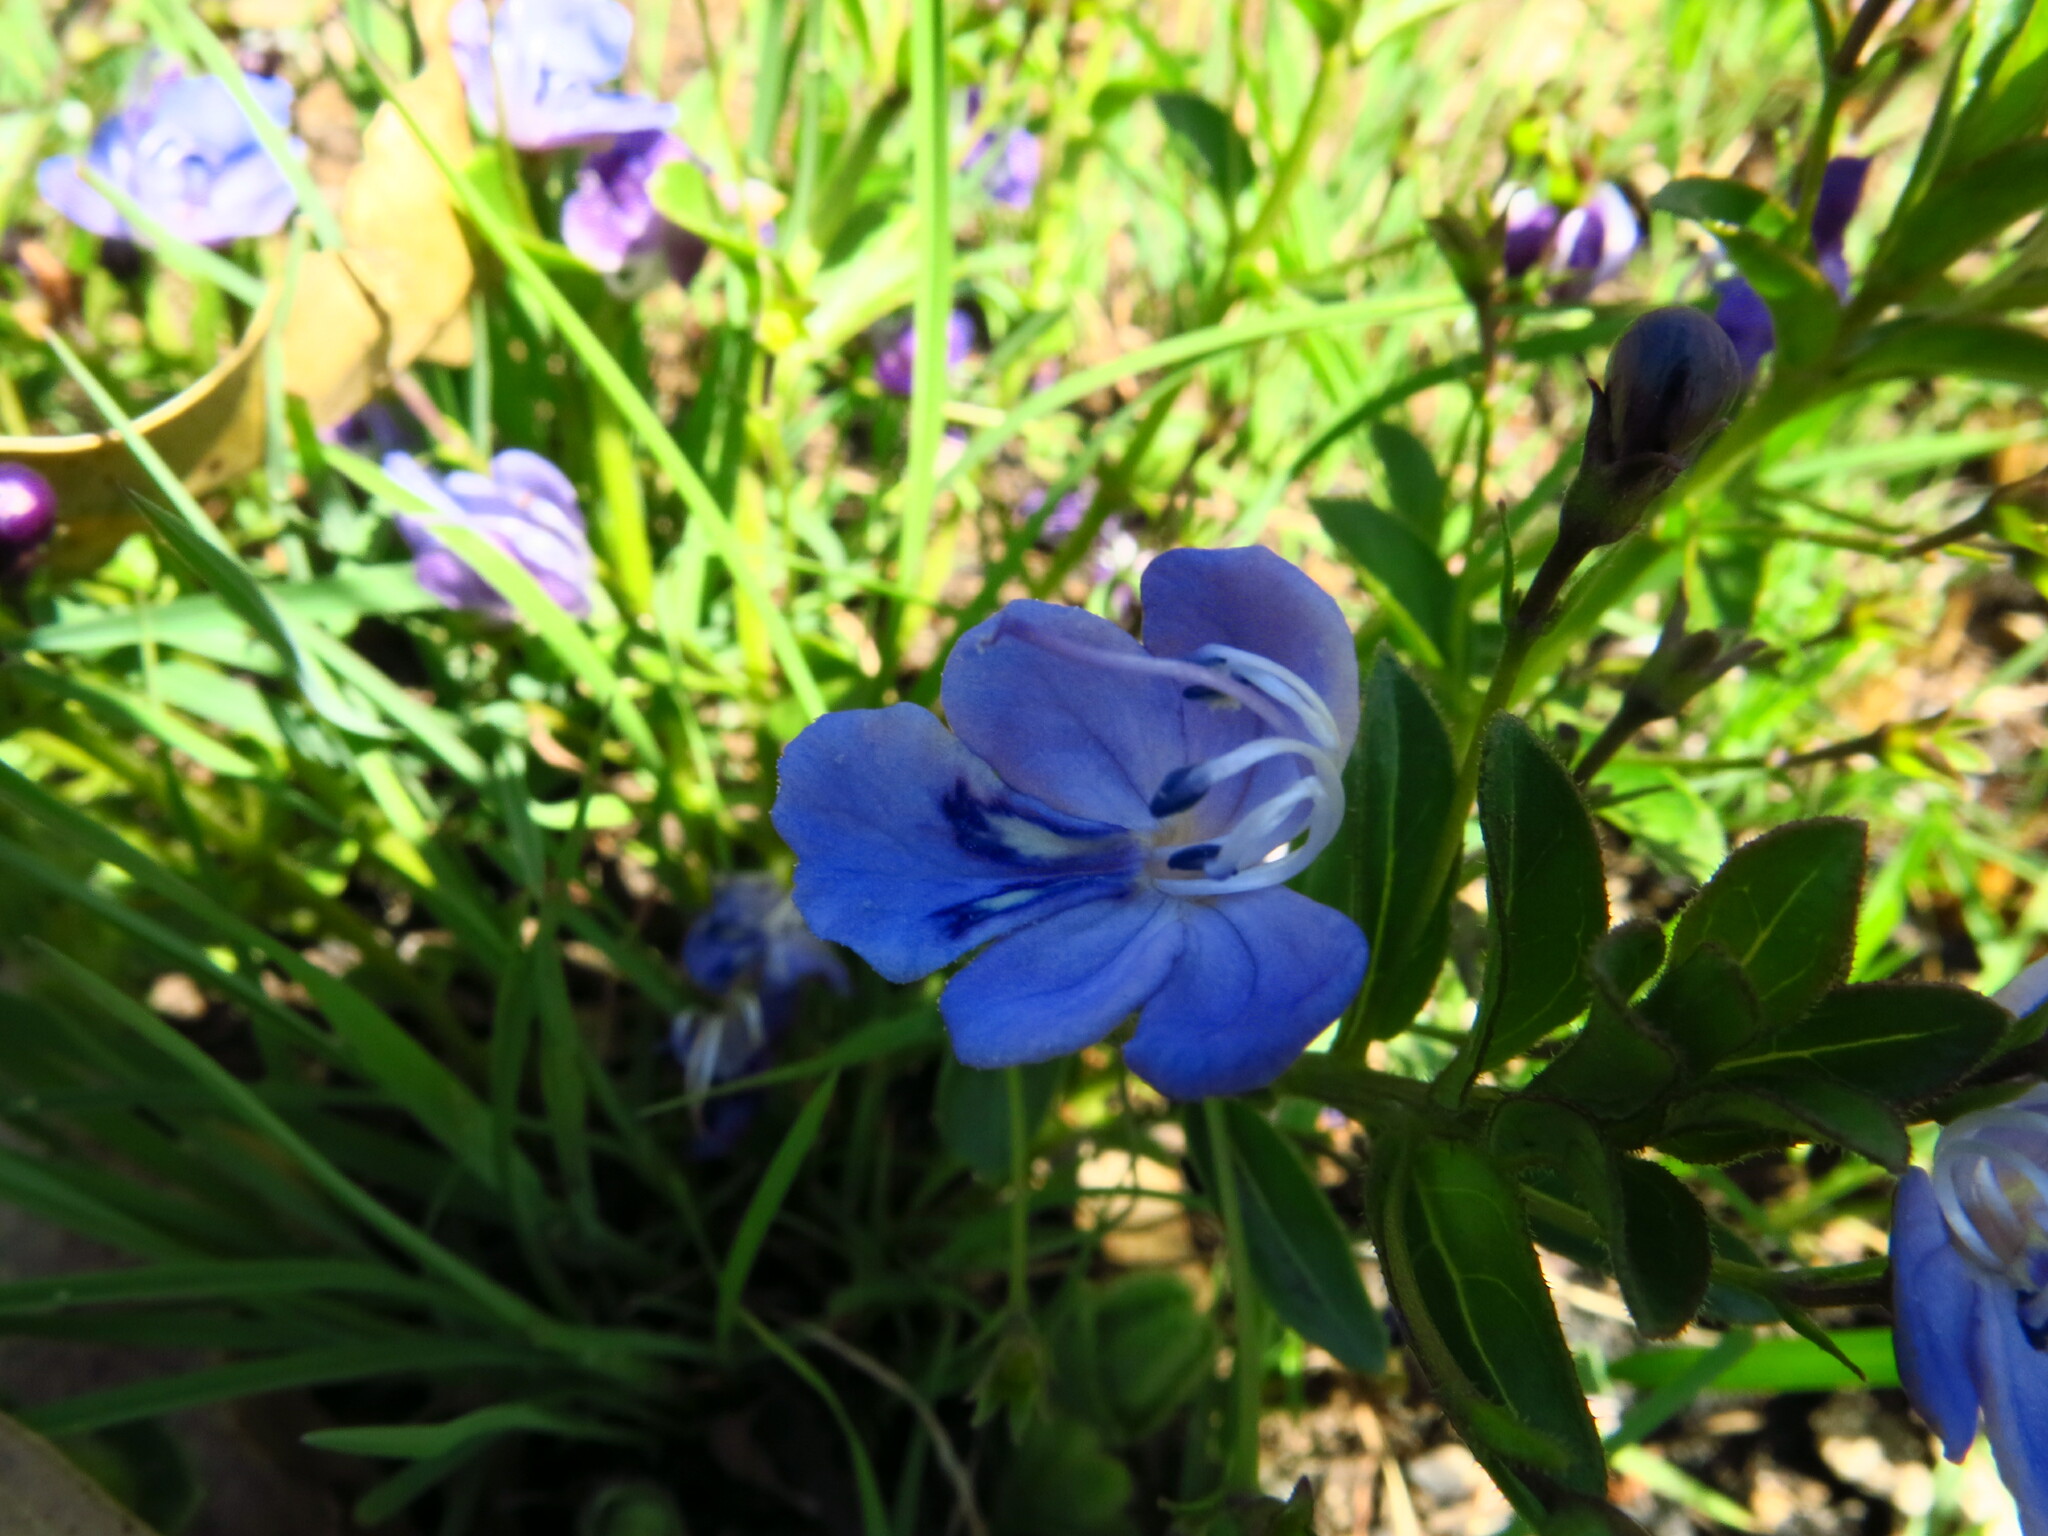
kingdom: Plantae
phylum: Tracheophyta
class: Magnoliopsida
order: Lamiales
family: Lamiaceae
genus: Rotheca
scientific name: Rotheca hirsuta
